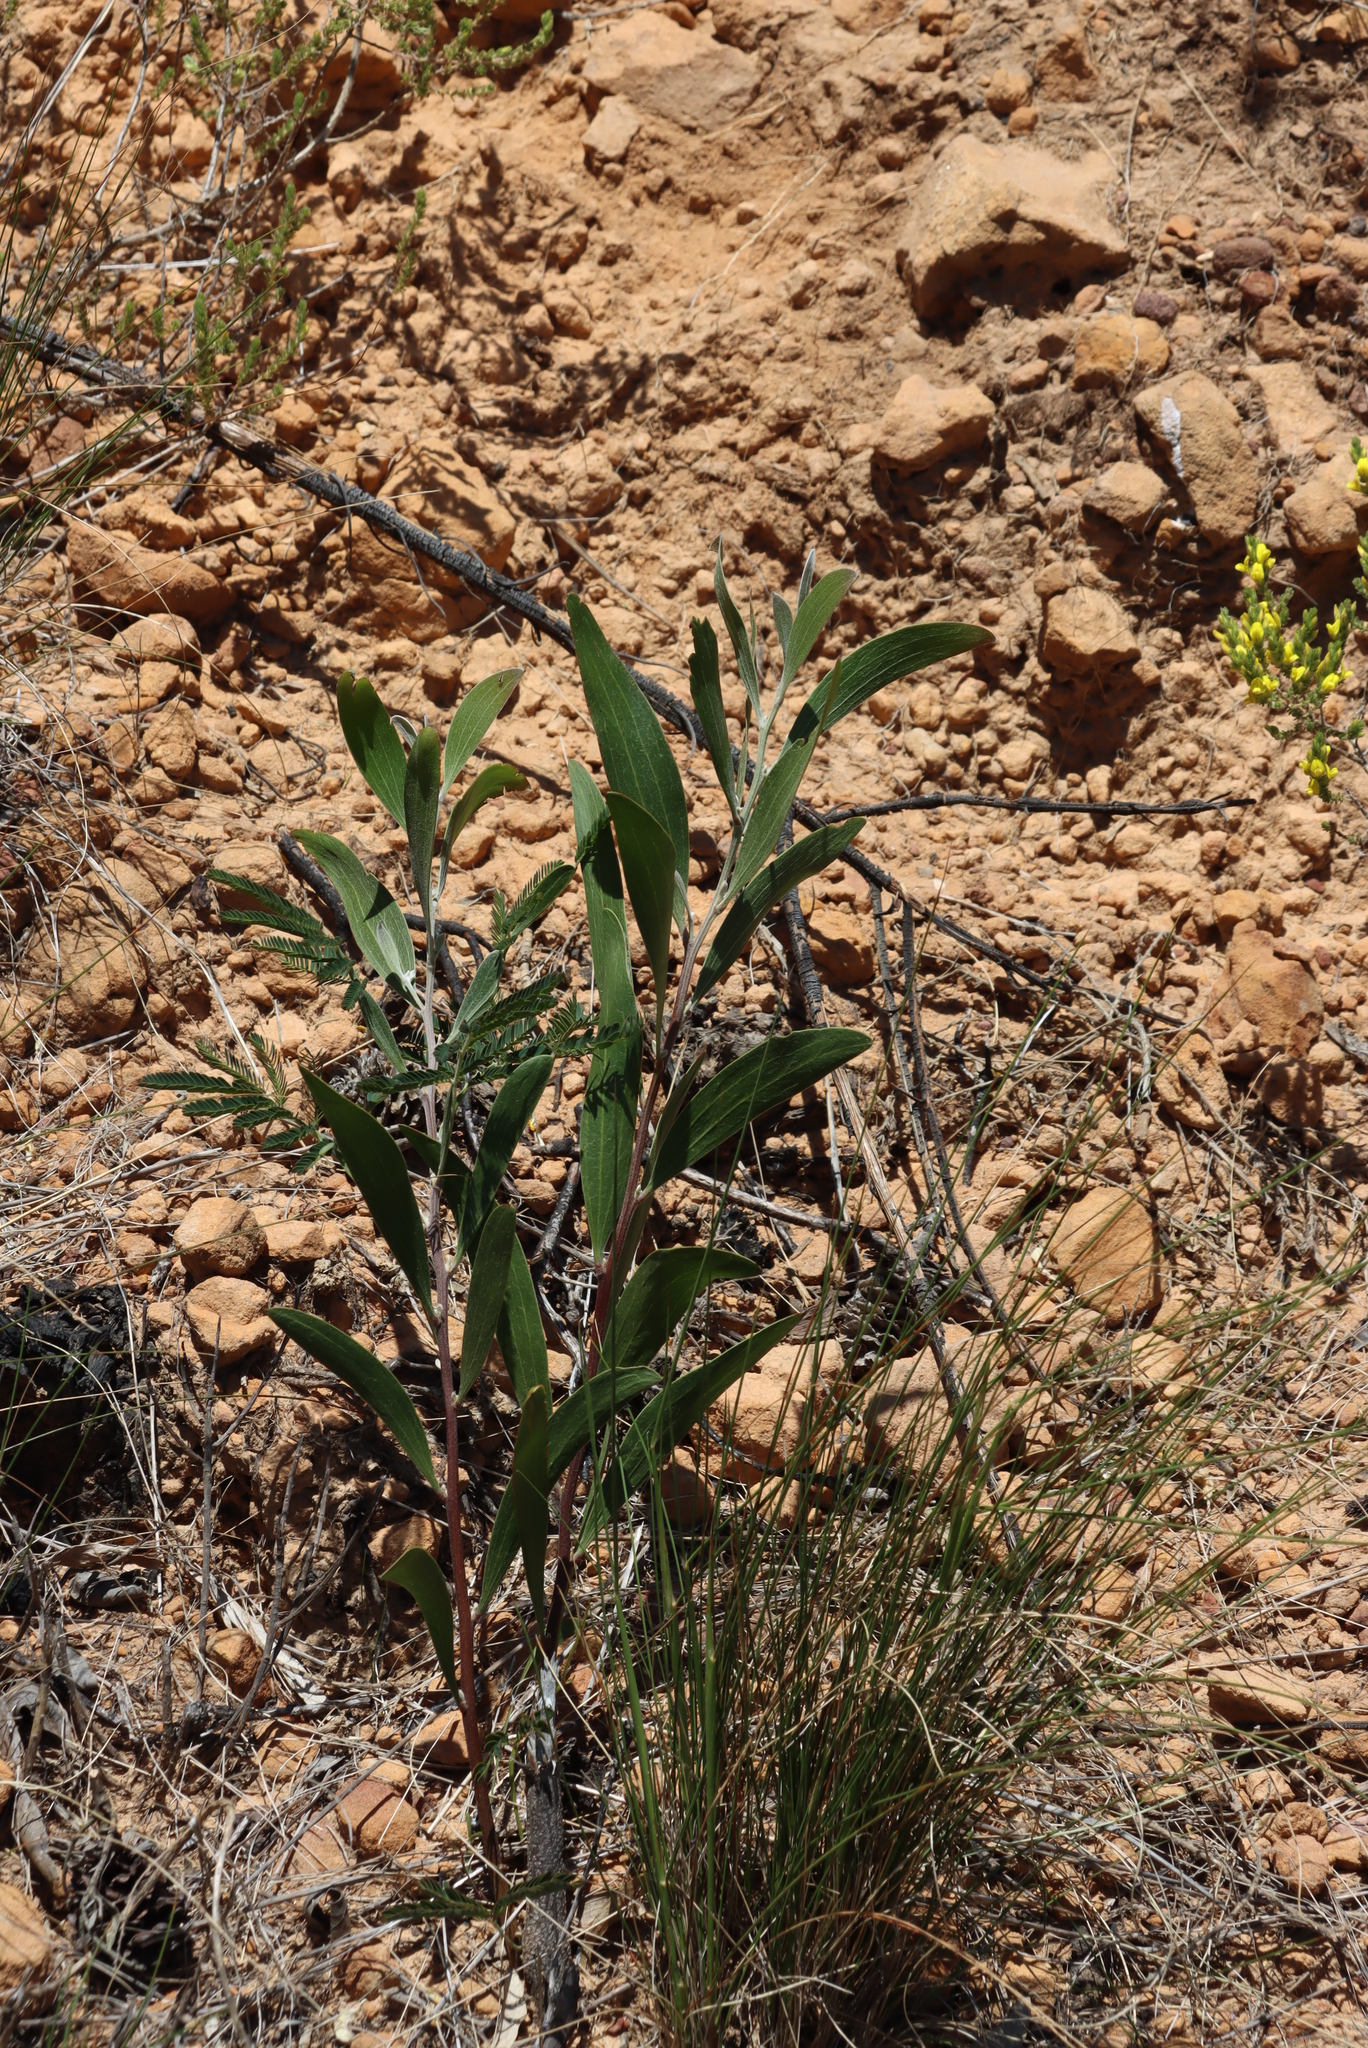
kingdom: Plantae
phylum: Tracheophyta
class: Magnoliopsida
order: Fabales
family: Fabaceae
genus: Acacia
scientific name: Acacia melanoxylon
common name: Blackwood
